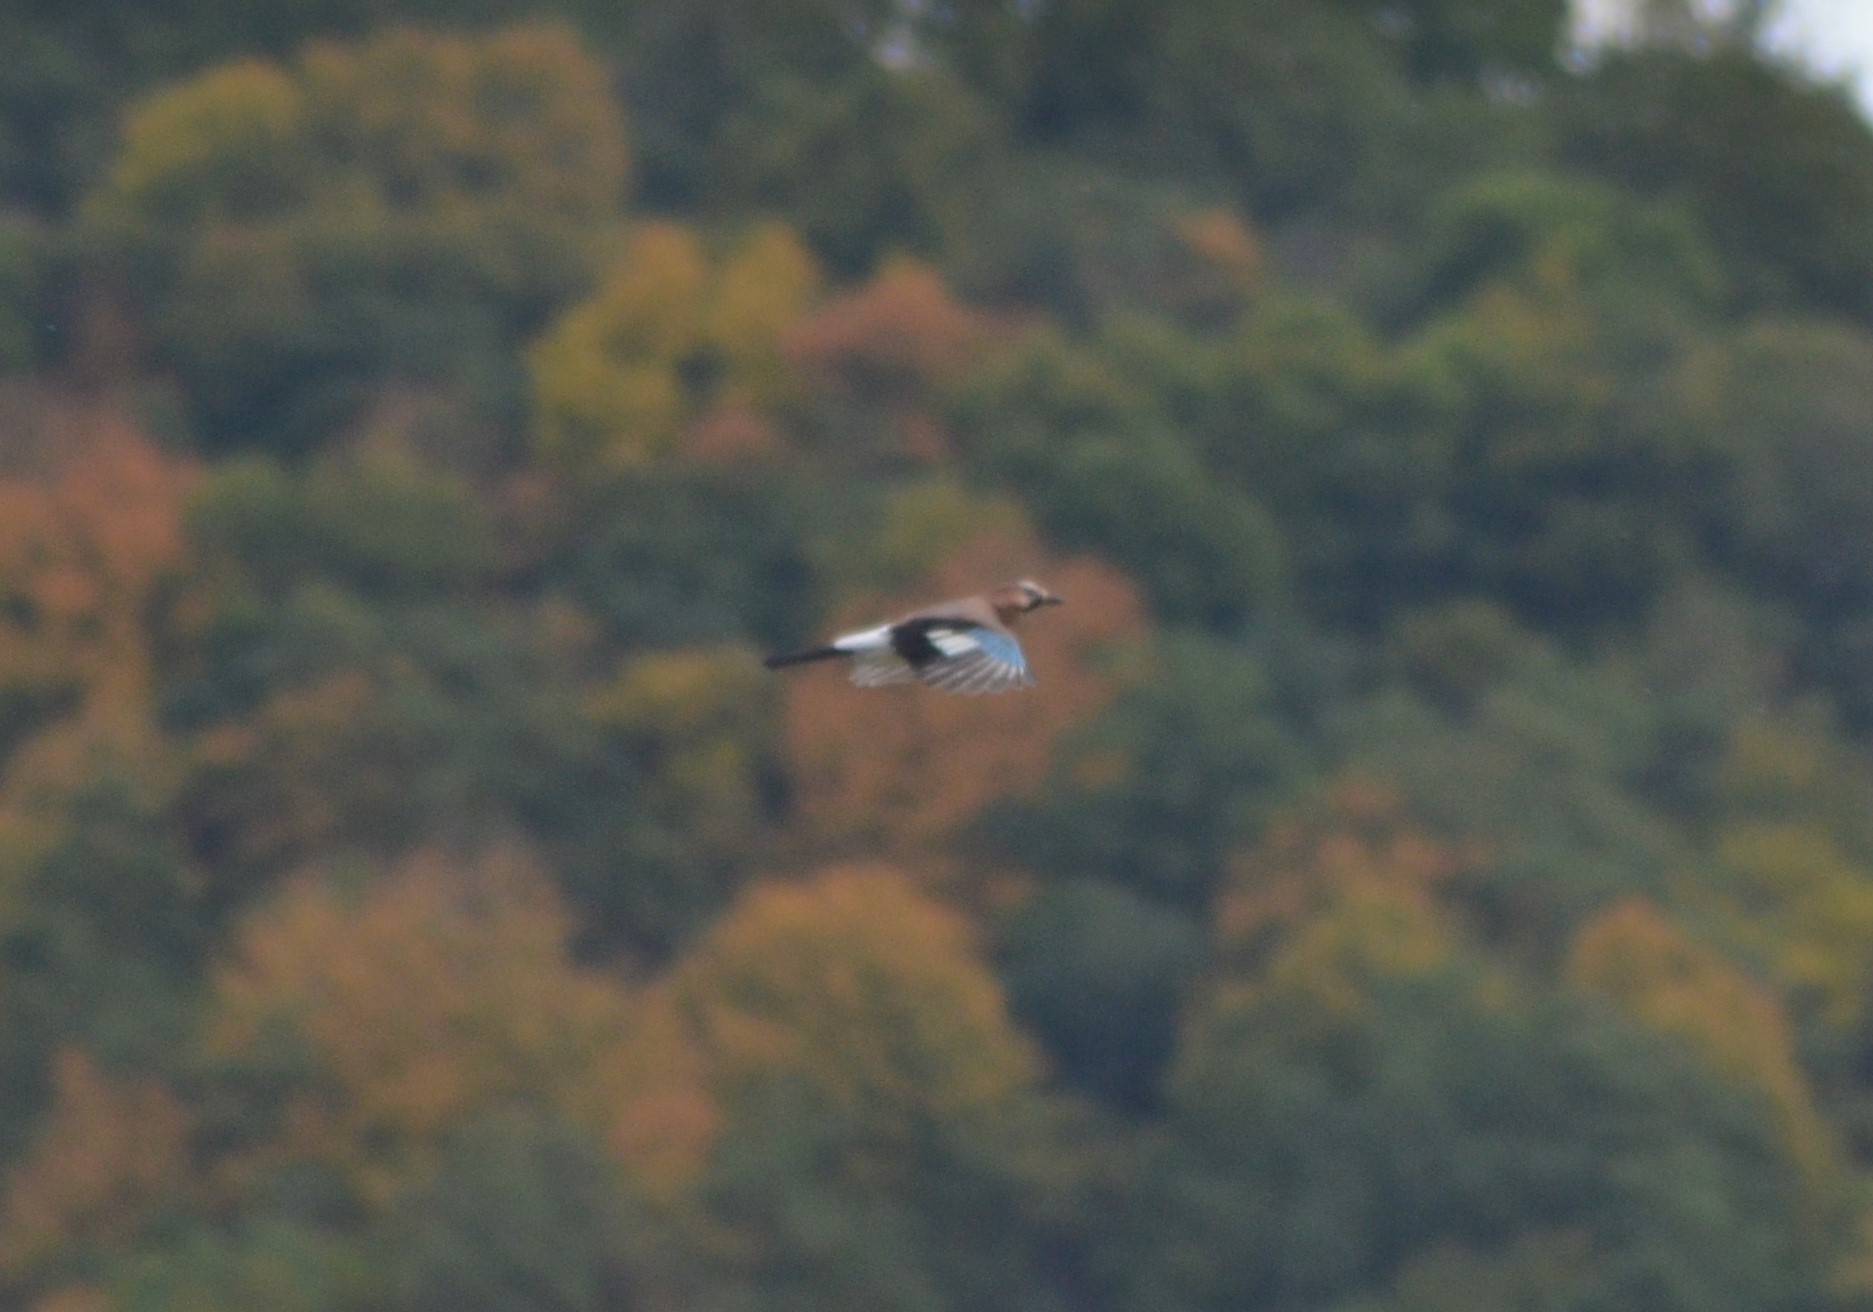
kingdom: Animalia
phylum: Chordata
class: Aves
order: Passeriformes
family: Corvidae
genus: Garrulus
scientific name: Garrulus glandarius
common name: Eurasian jay
